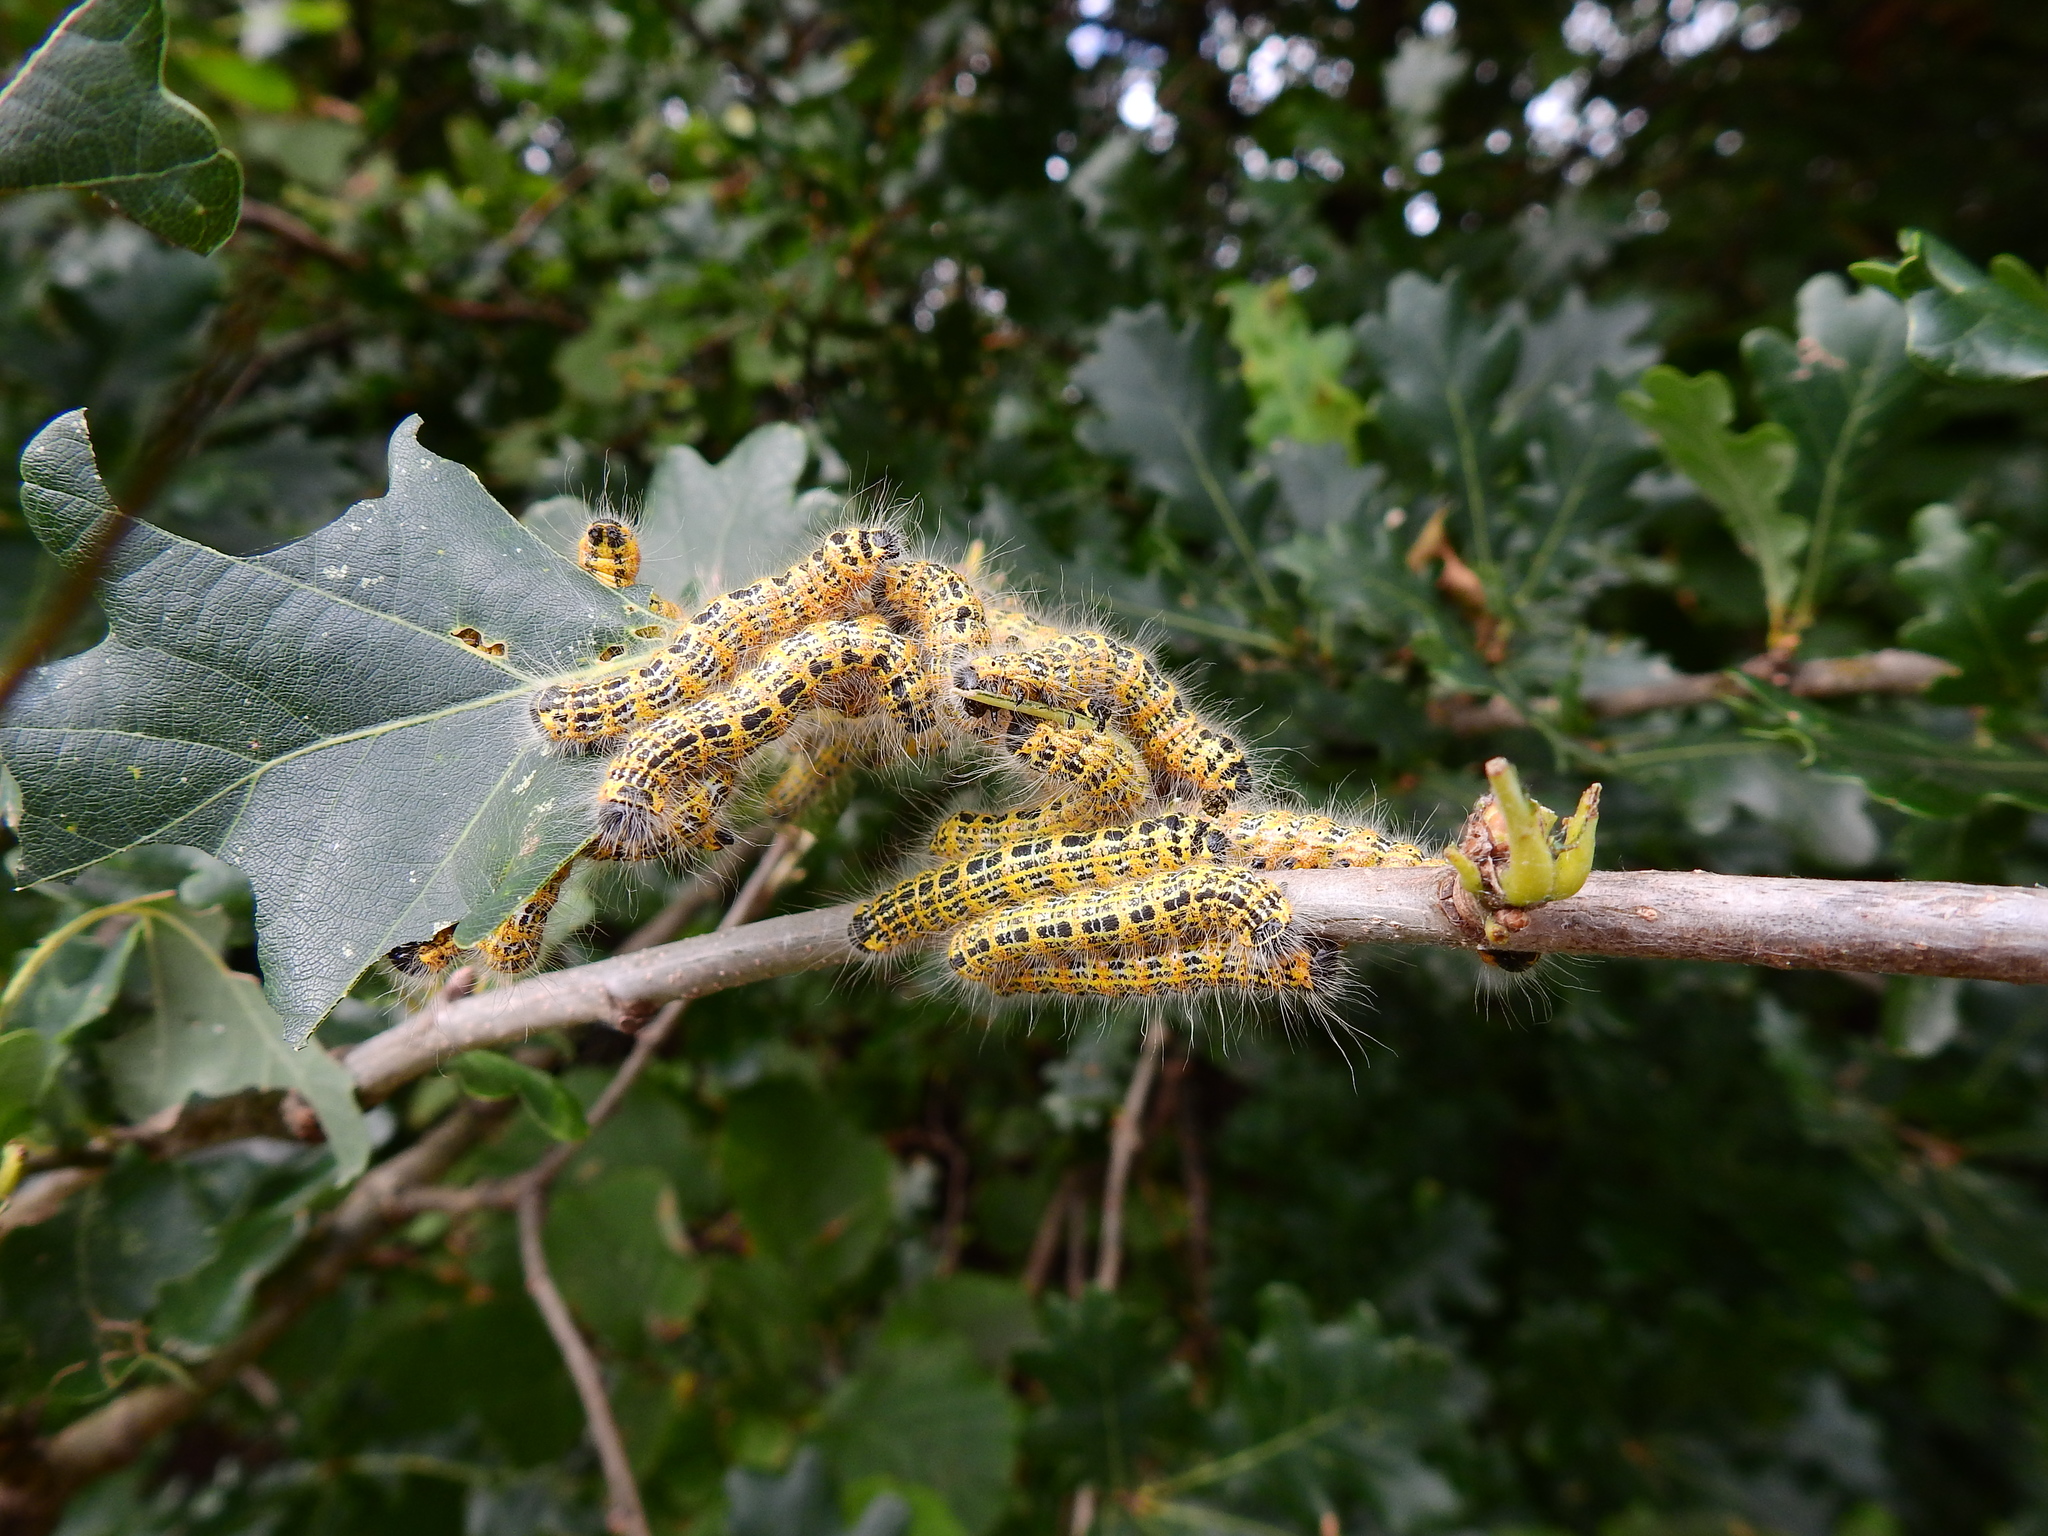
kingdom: Animalia
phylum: Arthropoda
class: Insecta
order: Lepidoptera
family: Notodontidae
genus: Phalera
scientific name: Phalera bucephala
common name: Buff-tip
